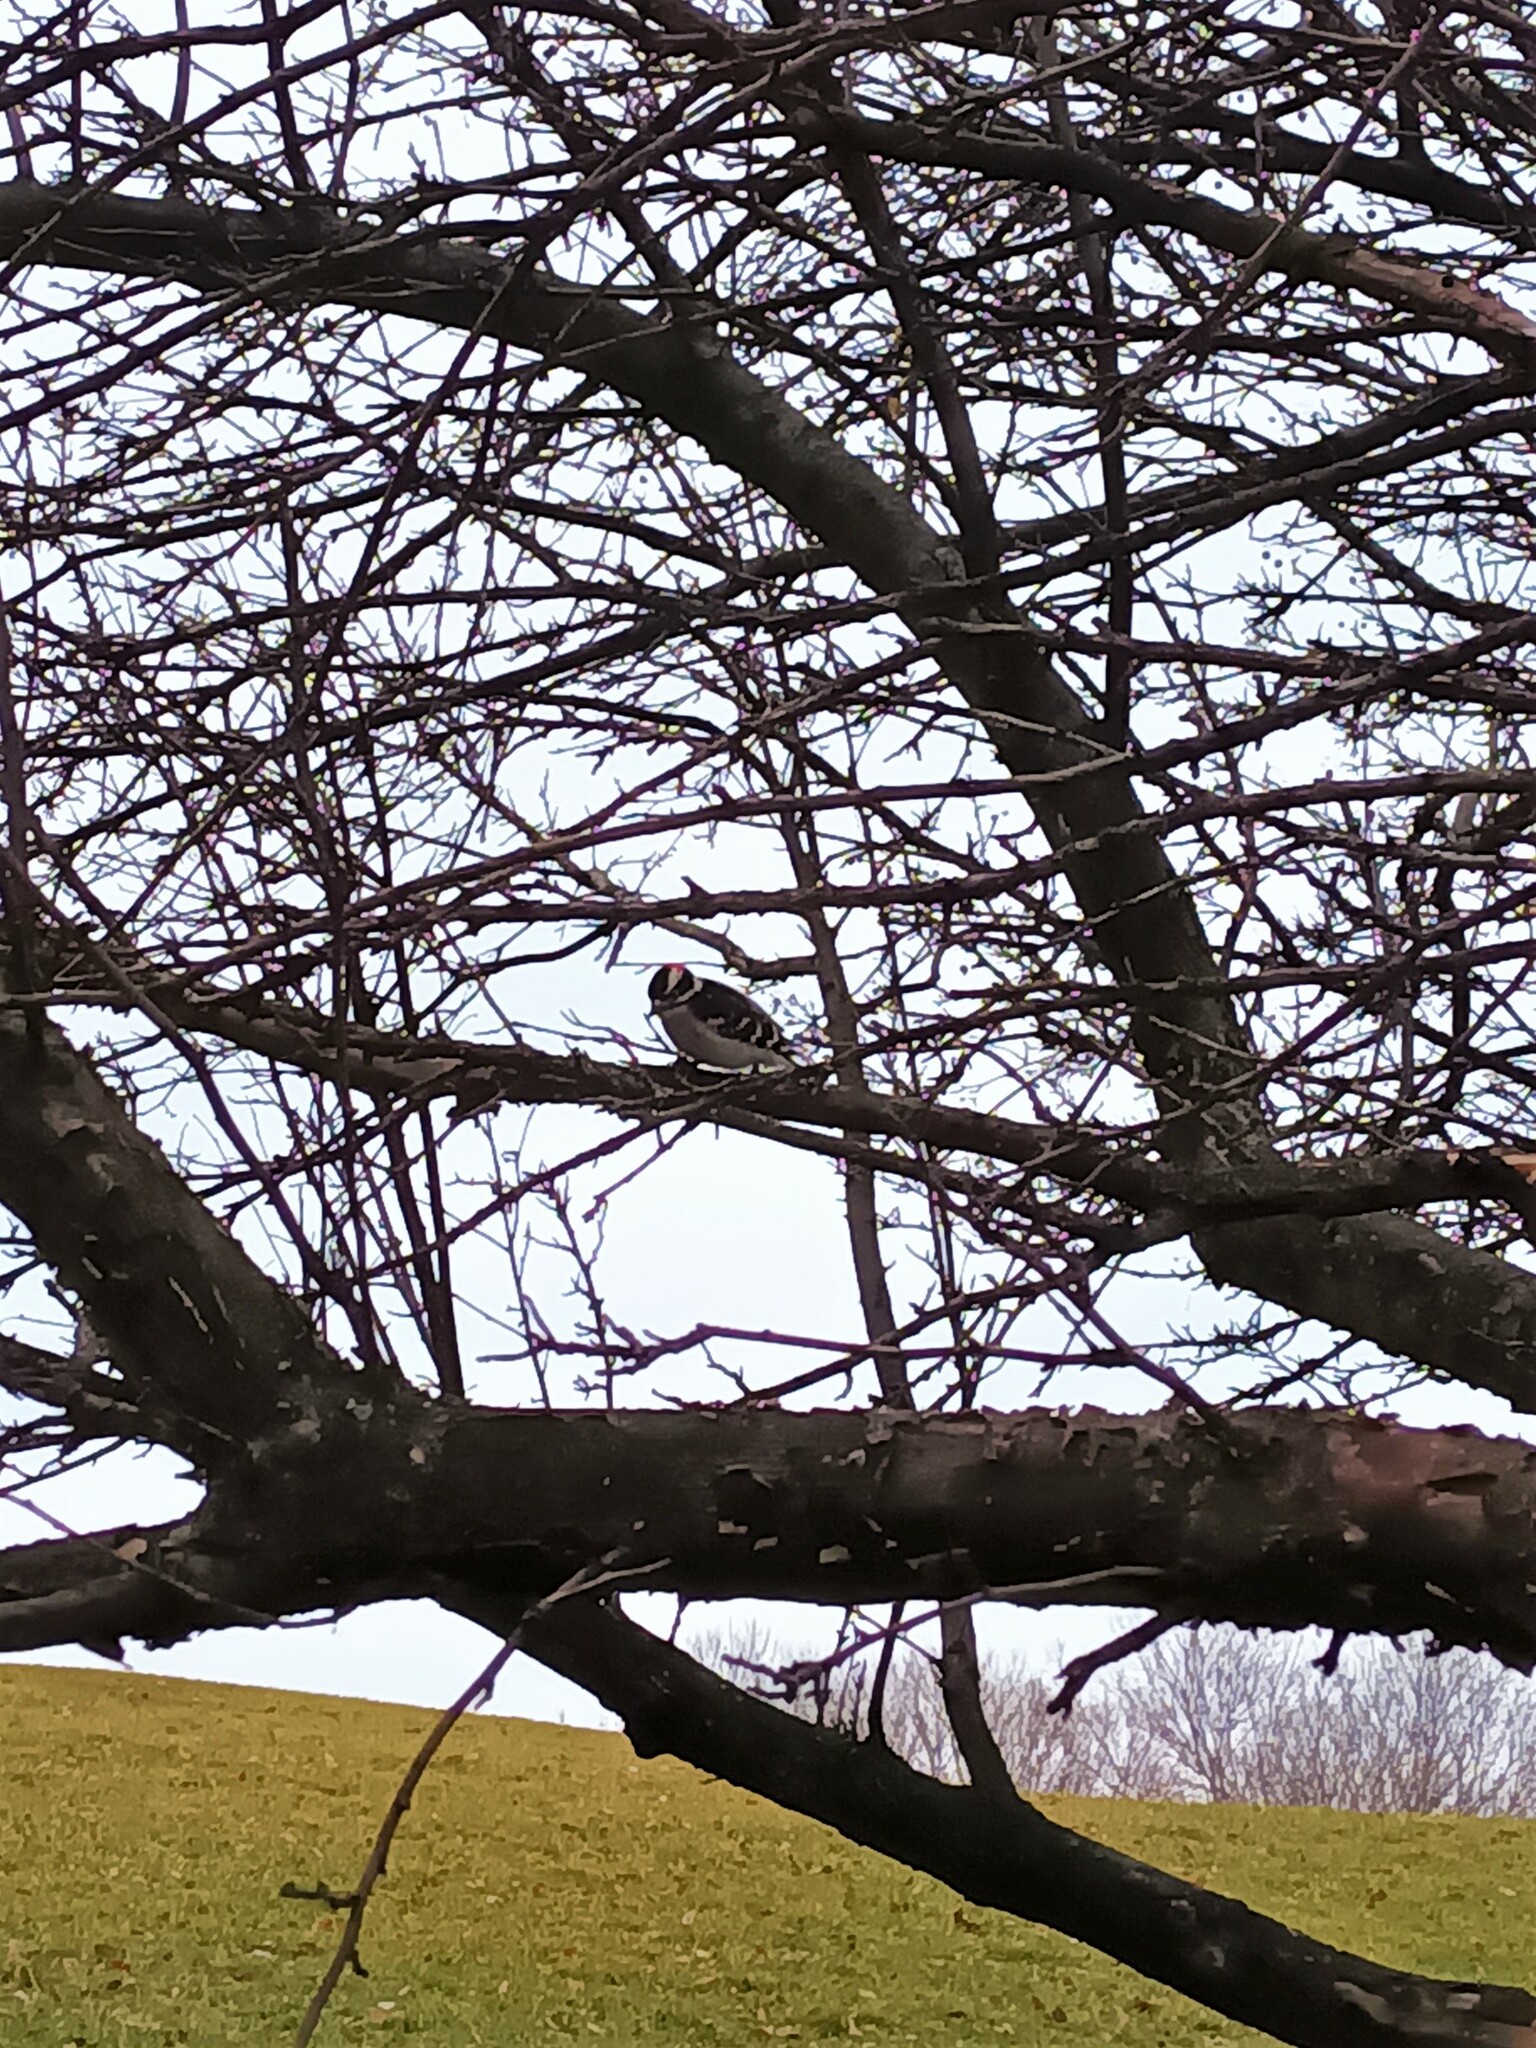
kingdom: Animalia
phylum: Chordata
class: Aves
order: Piciformes
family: Picidae
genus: Dryobates
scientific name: Dryobates pubescens
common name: Downy woodpecker
